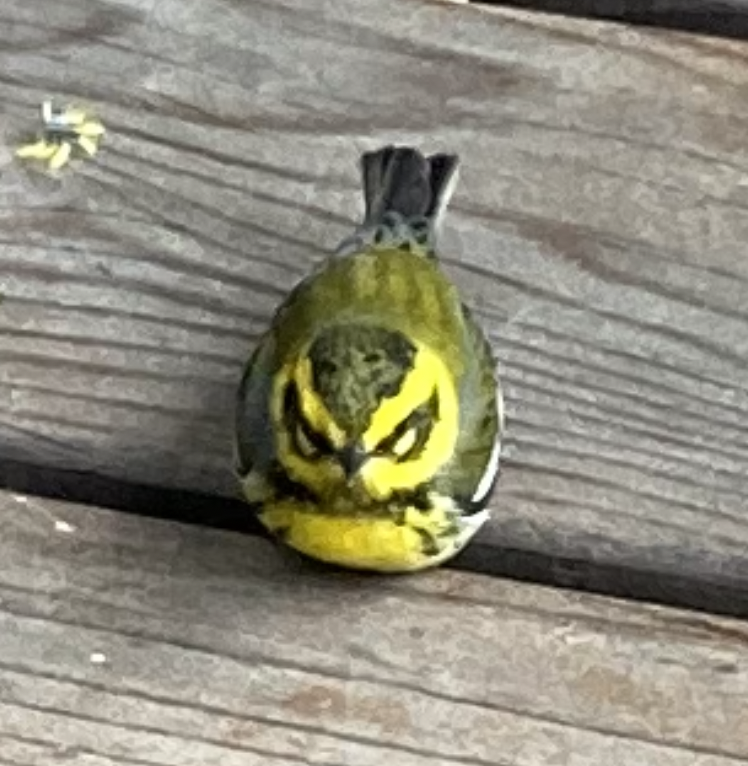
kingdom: Animalia
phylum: Chordata
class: Aves
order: Passeriformes
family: Parulidae
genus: Setophaga
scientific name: Setophaga townsendi
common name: Townsend's warbler
